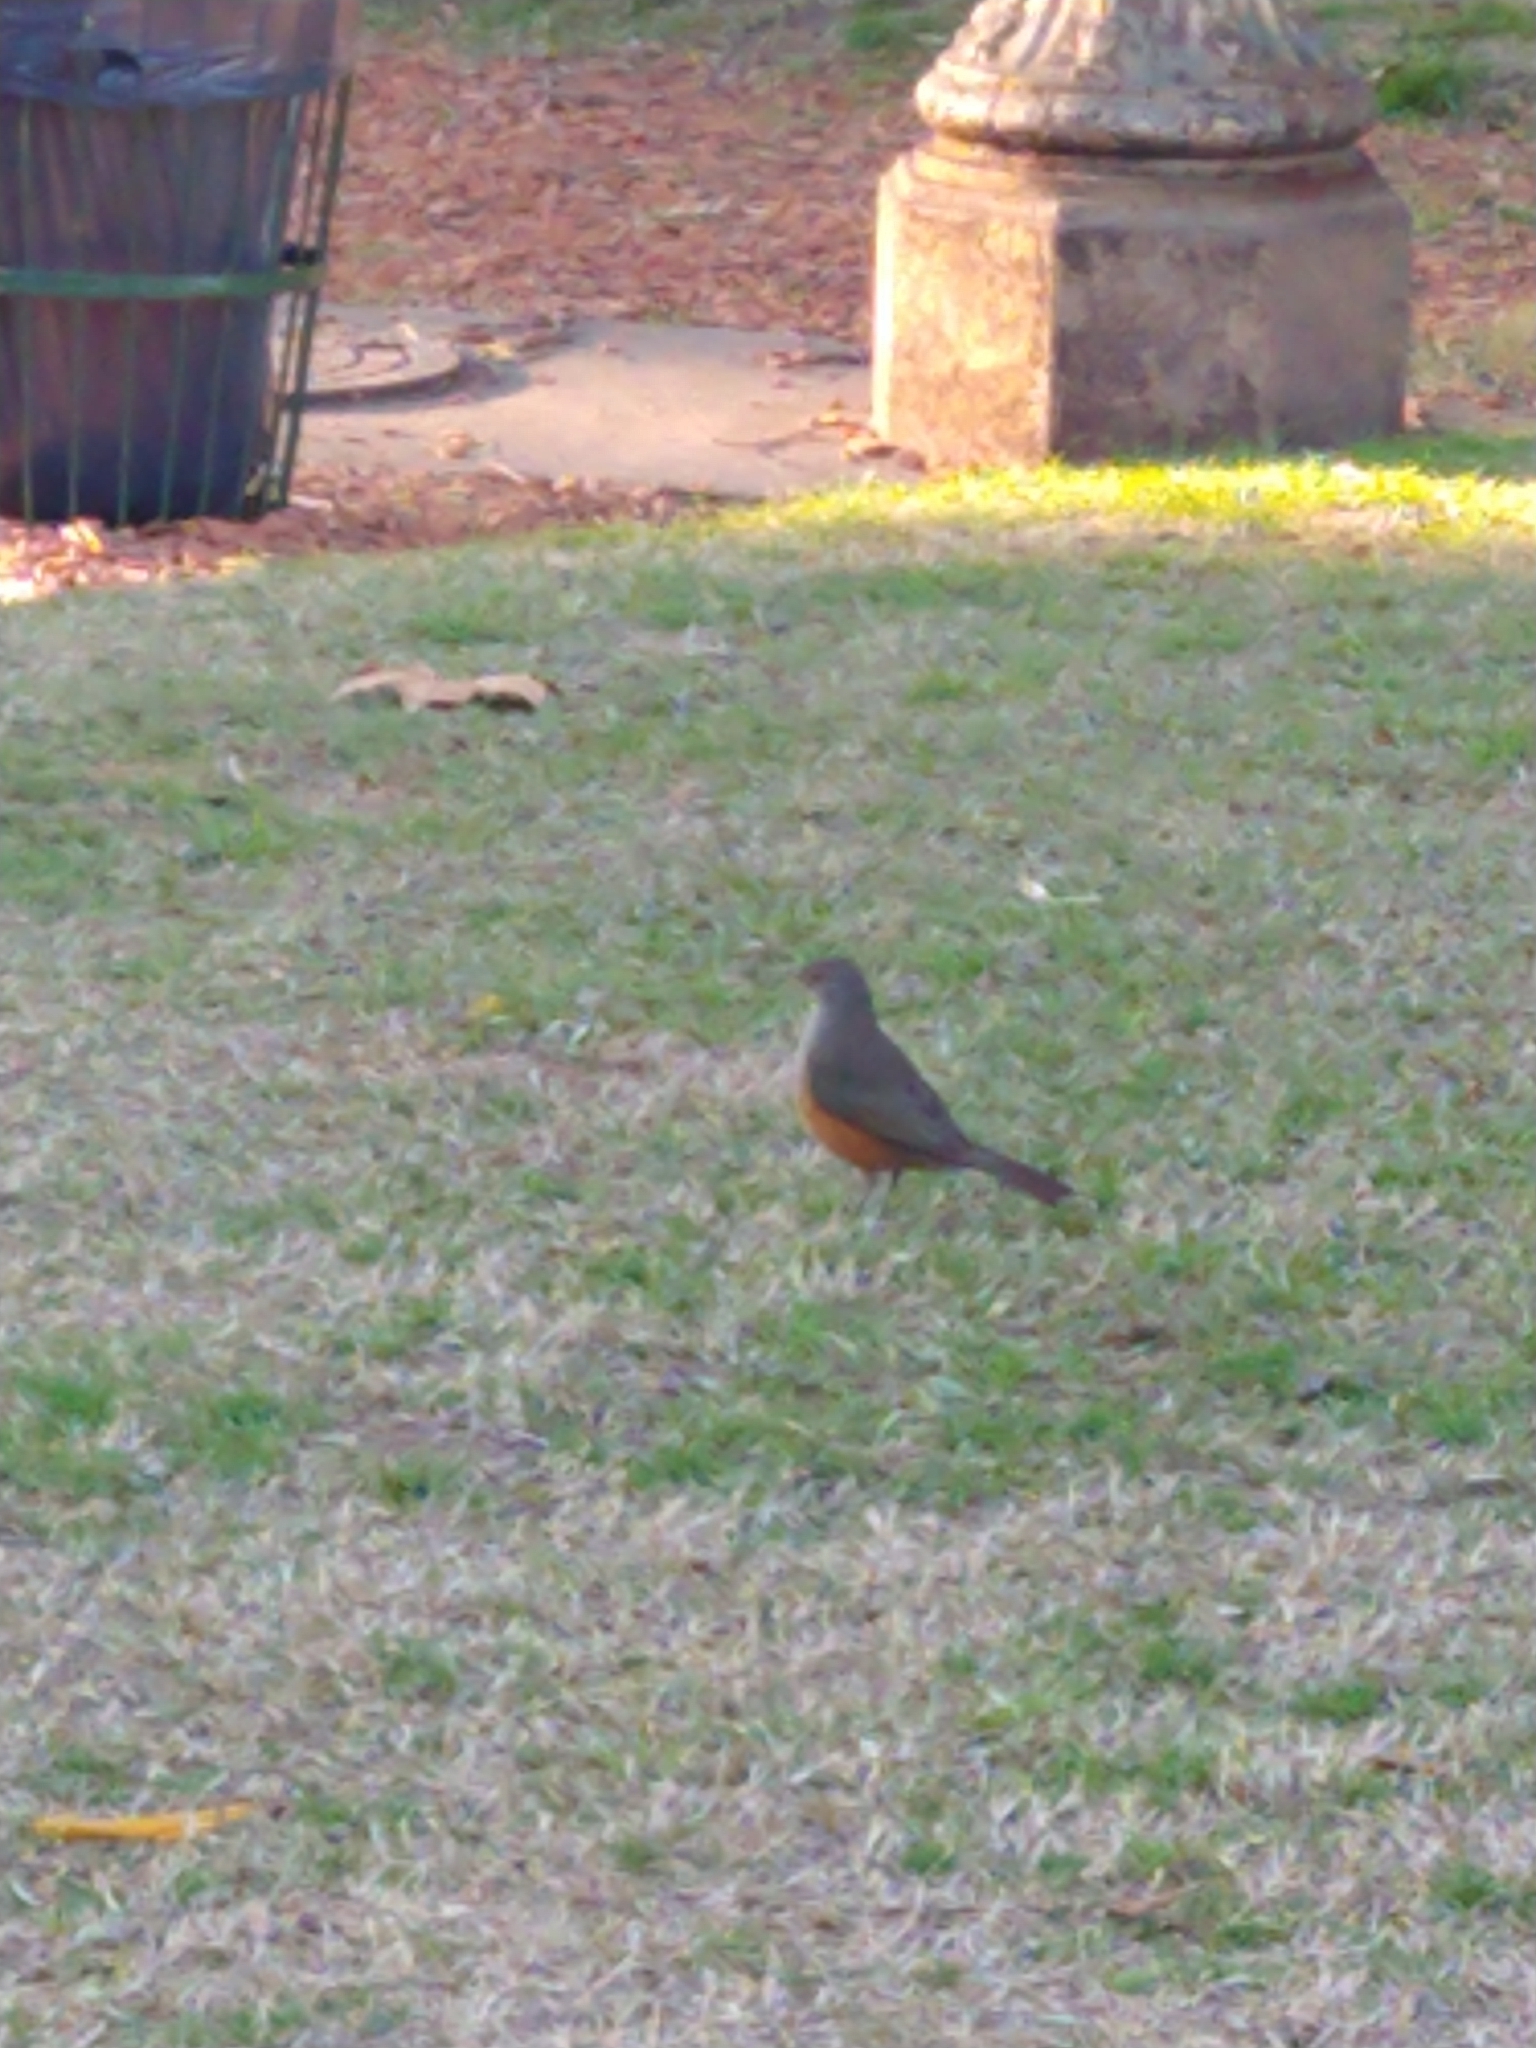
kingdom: Animalia
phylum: Chordata
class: Aves
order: Passeriformes
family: Turdidae
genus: Turdus
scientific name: Turdus rufiventris
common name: Rufous-bellied thrush
